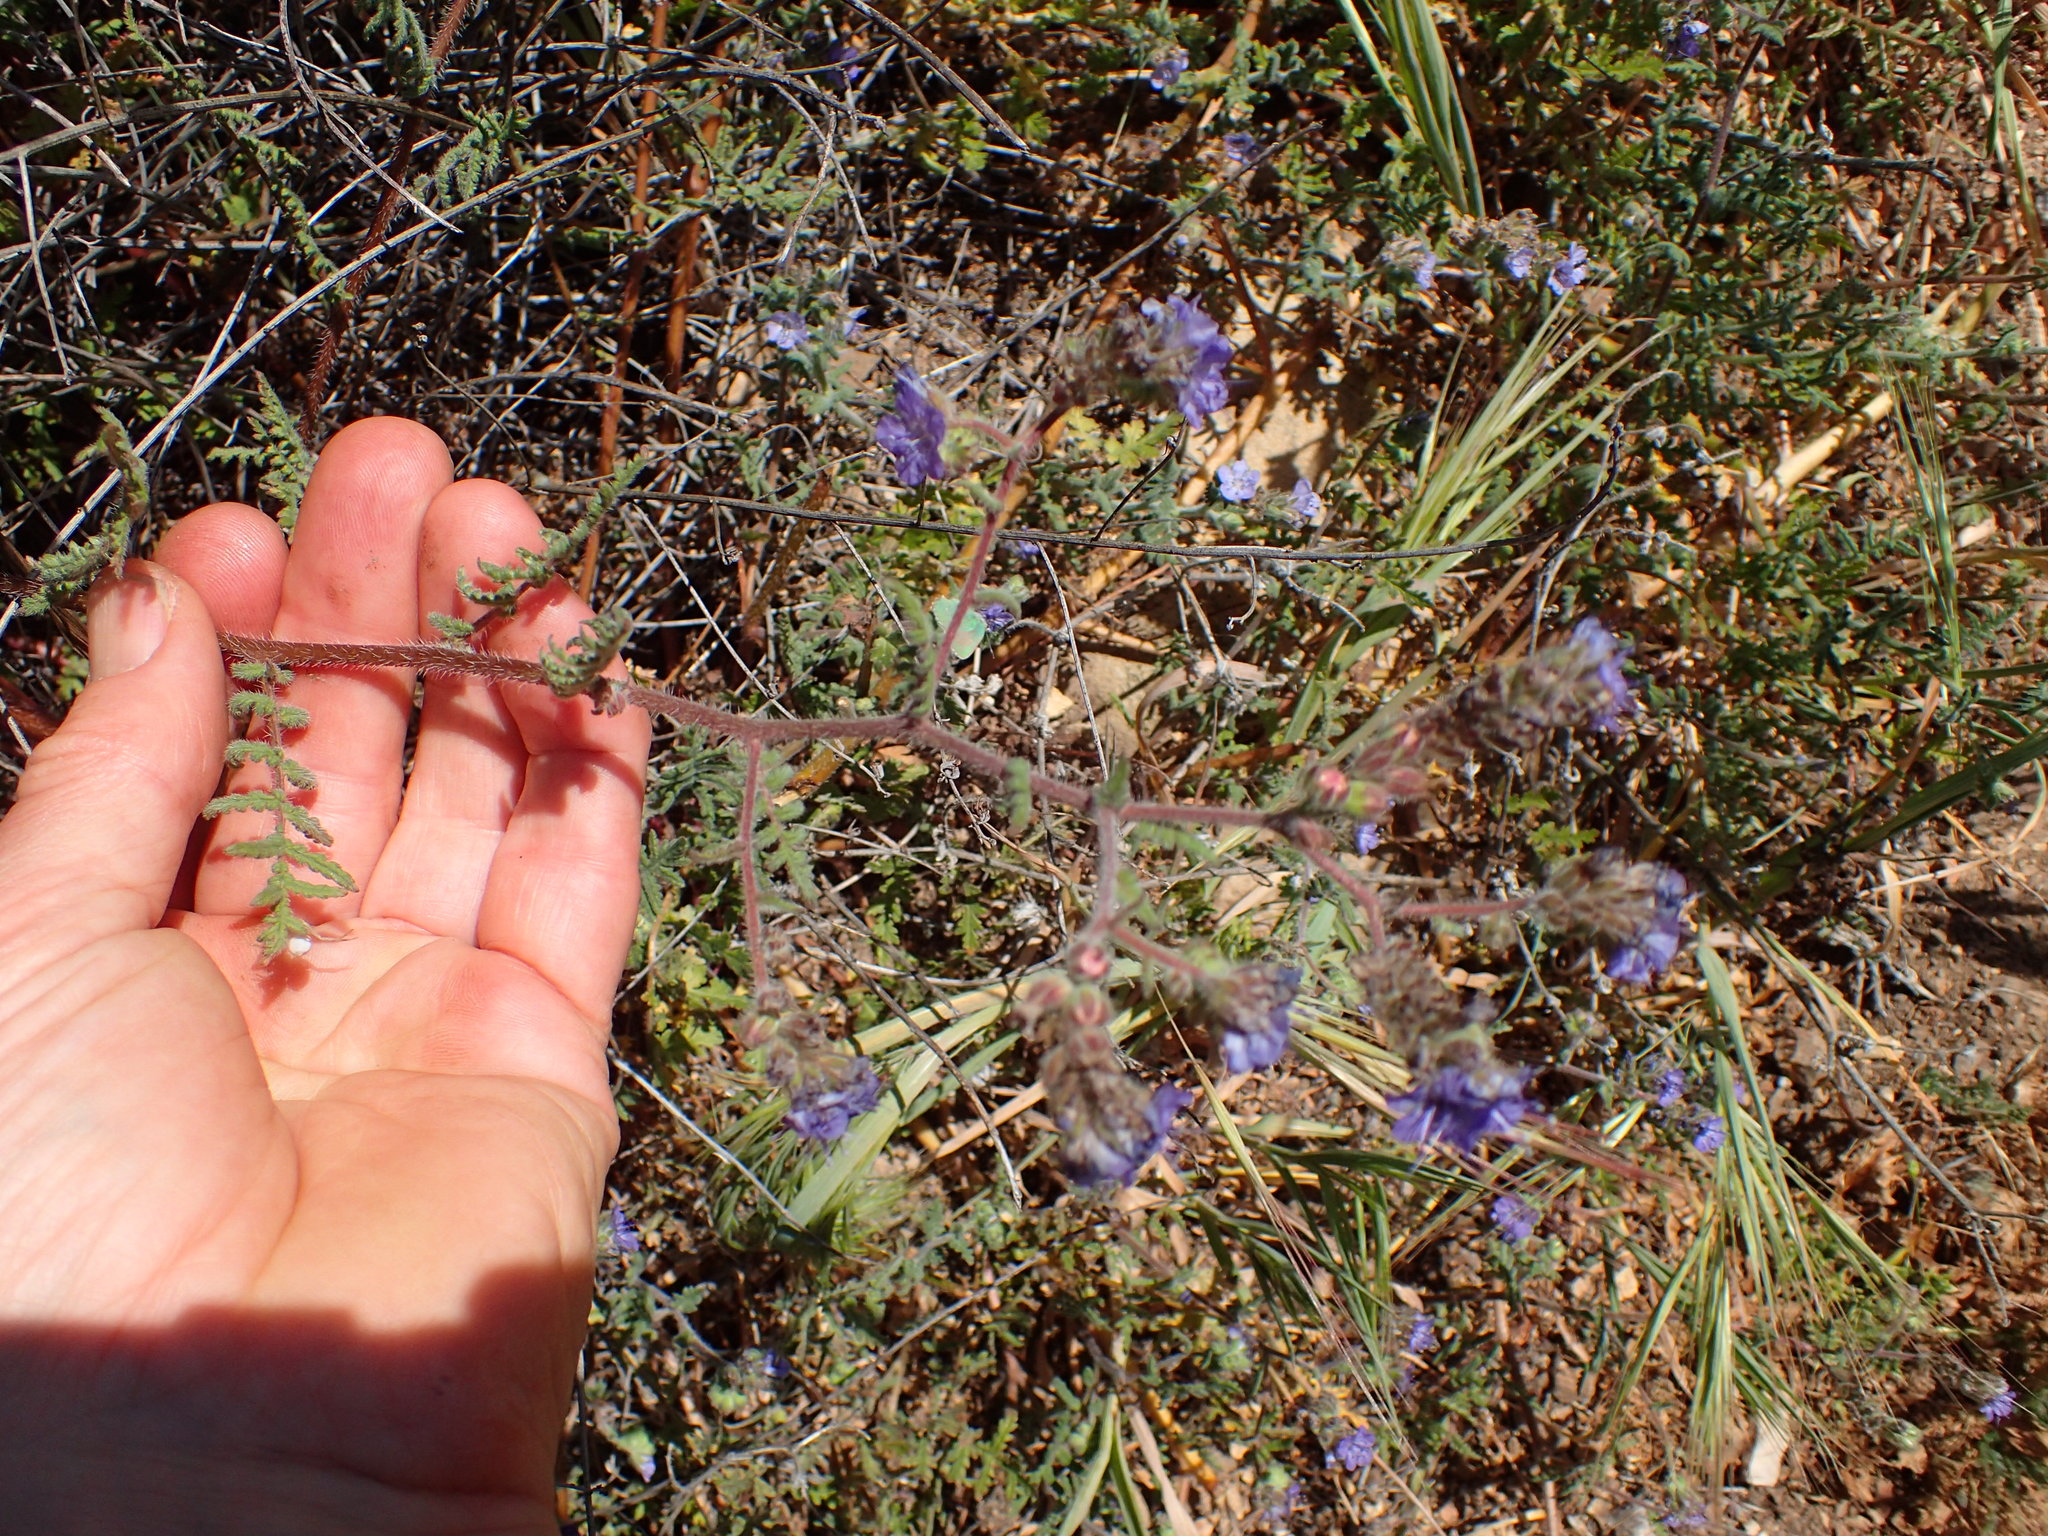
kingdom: Plantae
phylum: Tracheophyta
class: Magnoliopsida
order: Boraginales
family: Hydrophyllaceae
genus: Phacelia
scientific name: Phacelia distans
